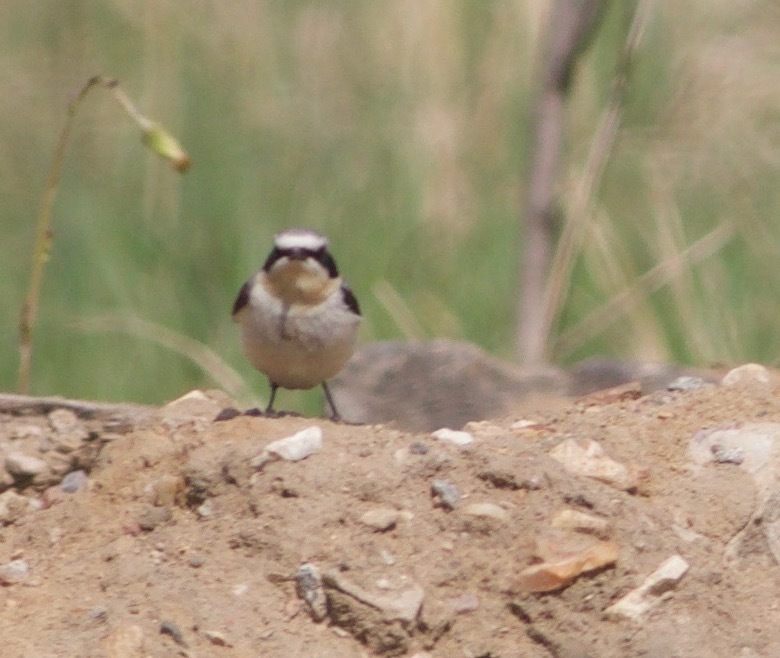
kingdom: Animalia
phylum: Chordata
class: Aves
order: Passeriformes
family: Muscicapidae
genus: Oenanthe
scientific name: Oenanthe oenanthe
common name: Northern wheatear
